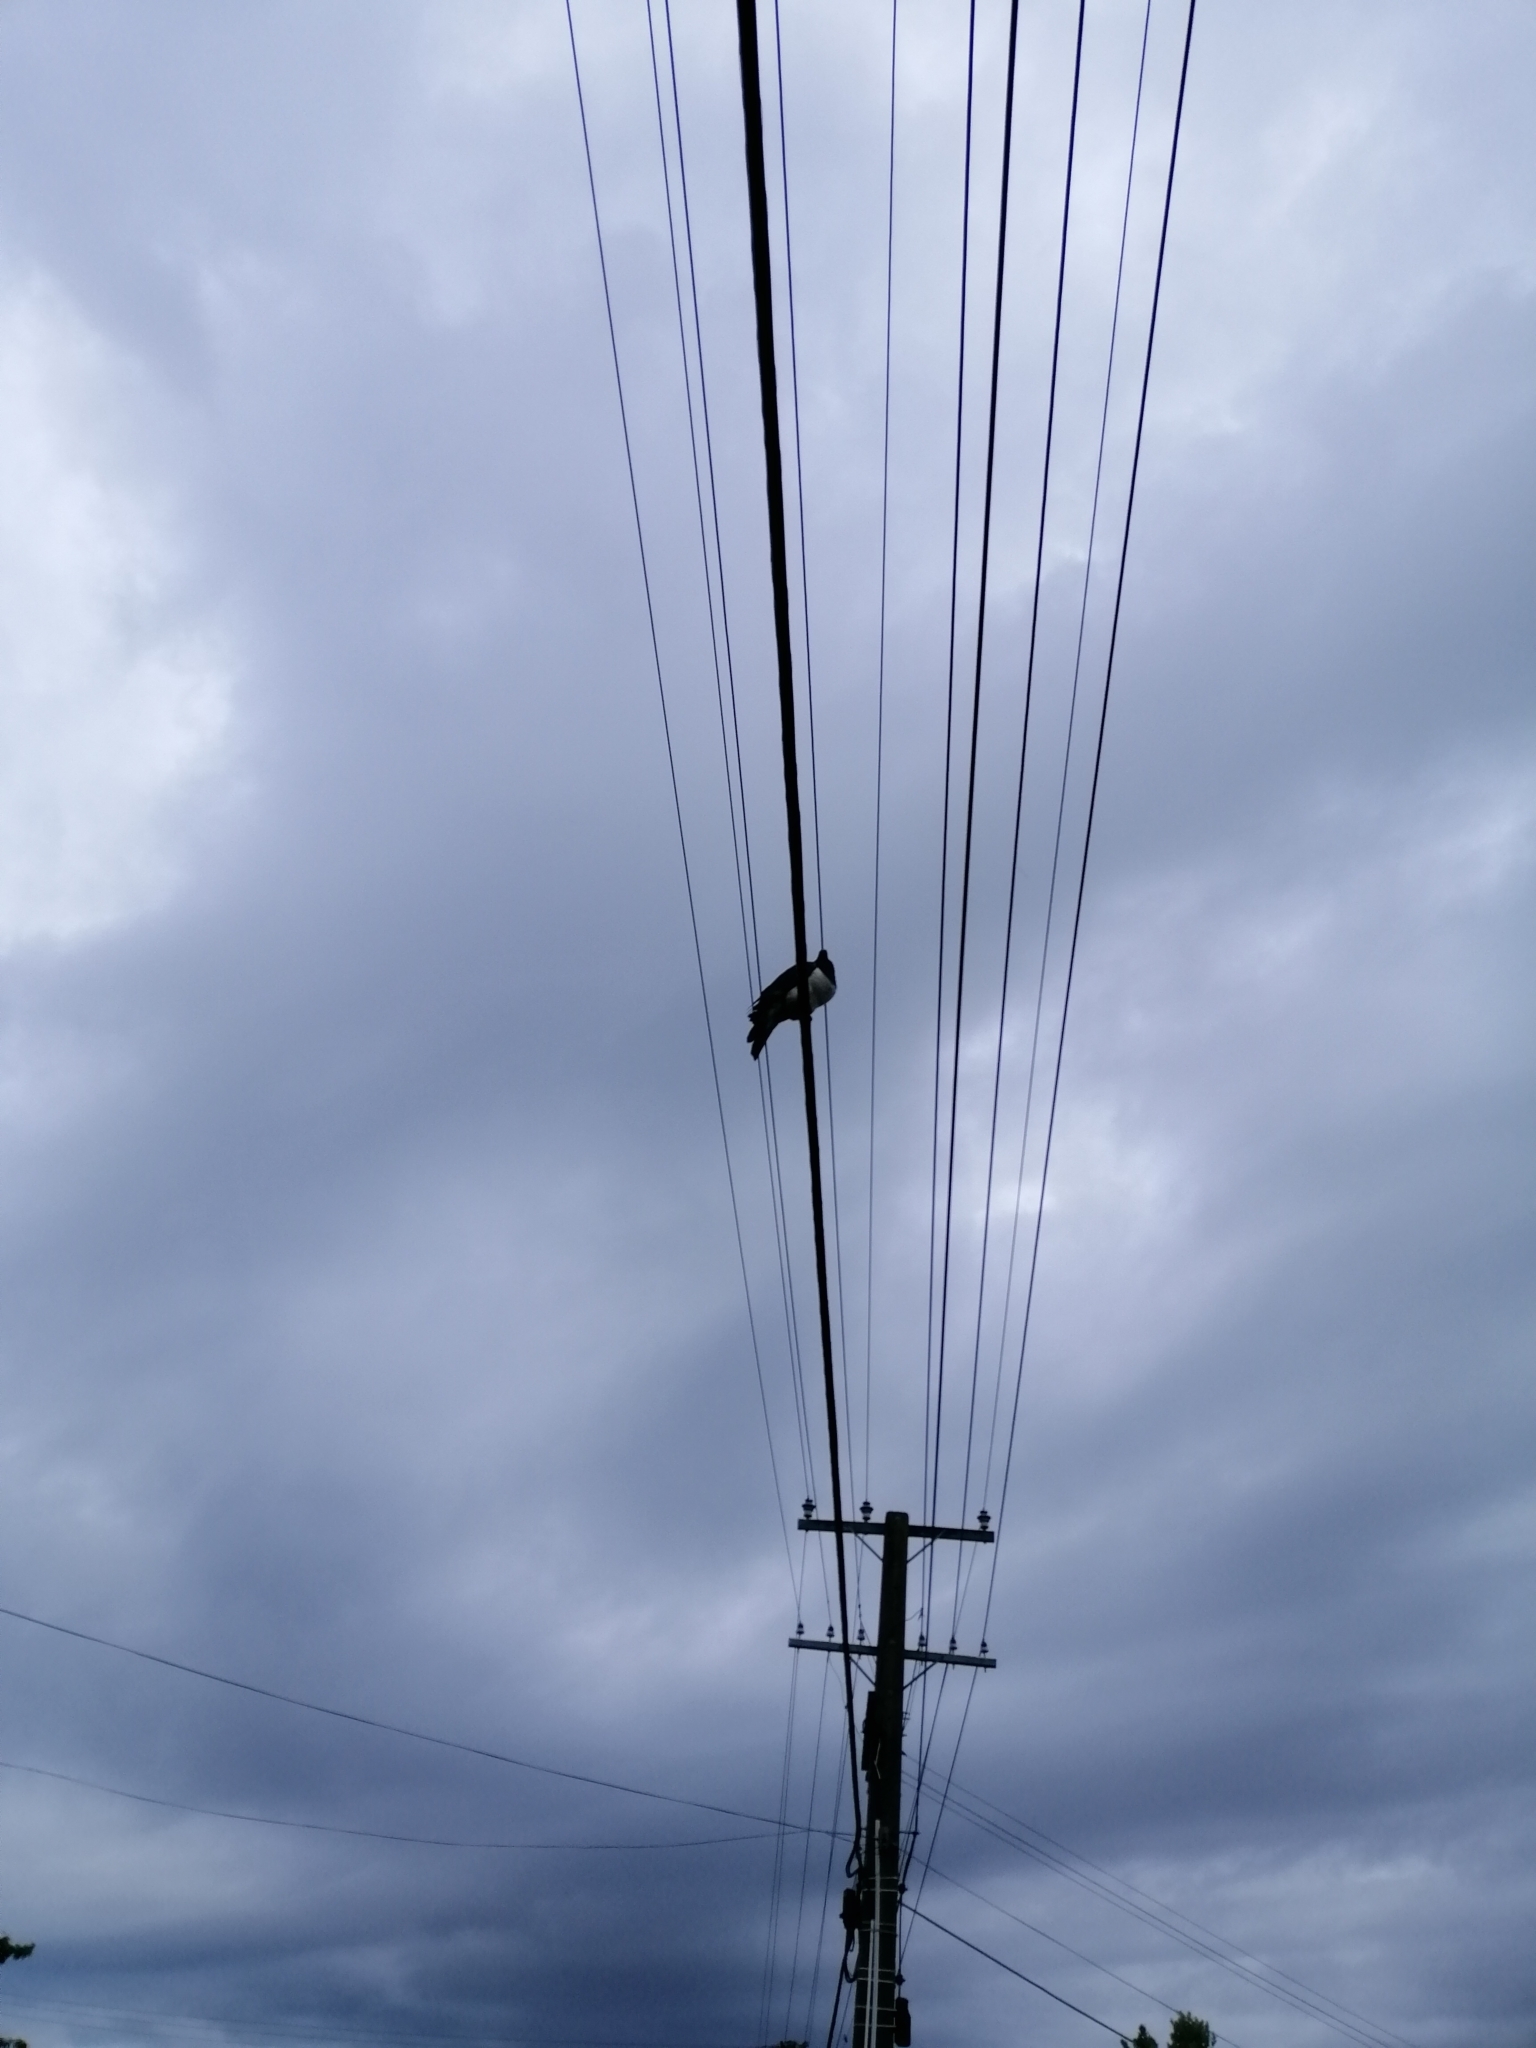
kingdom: Animalia
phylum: Chordata
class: Aves
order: Columbiformes
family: Columbidae
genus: Hemiphaga
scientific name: Hemiphaga novaeseelandiae
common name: New zealand pigeon
